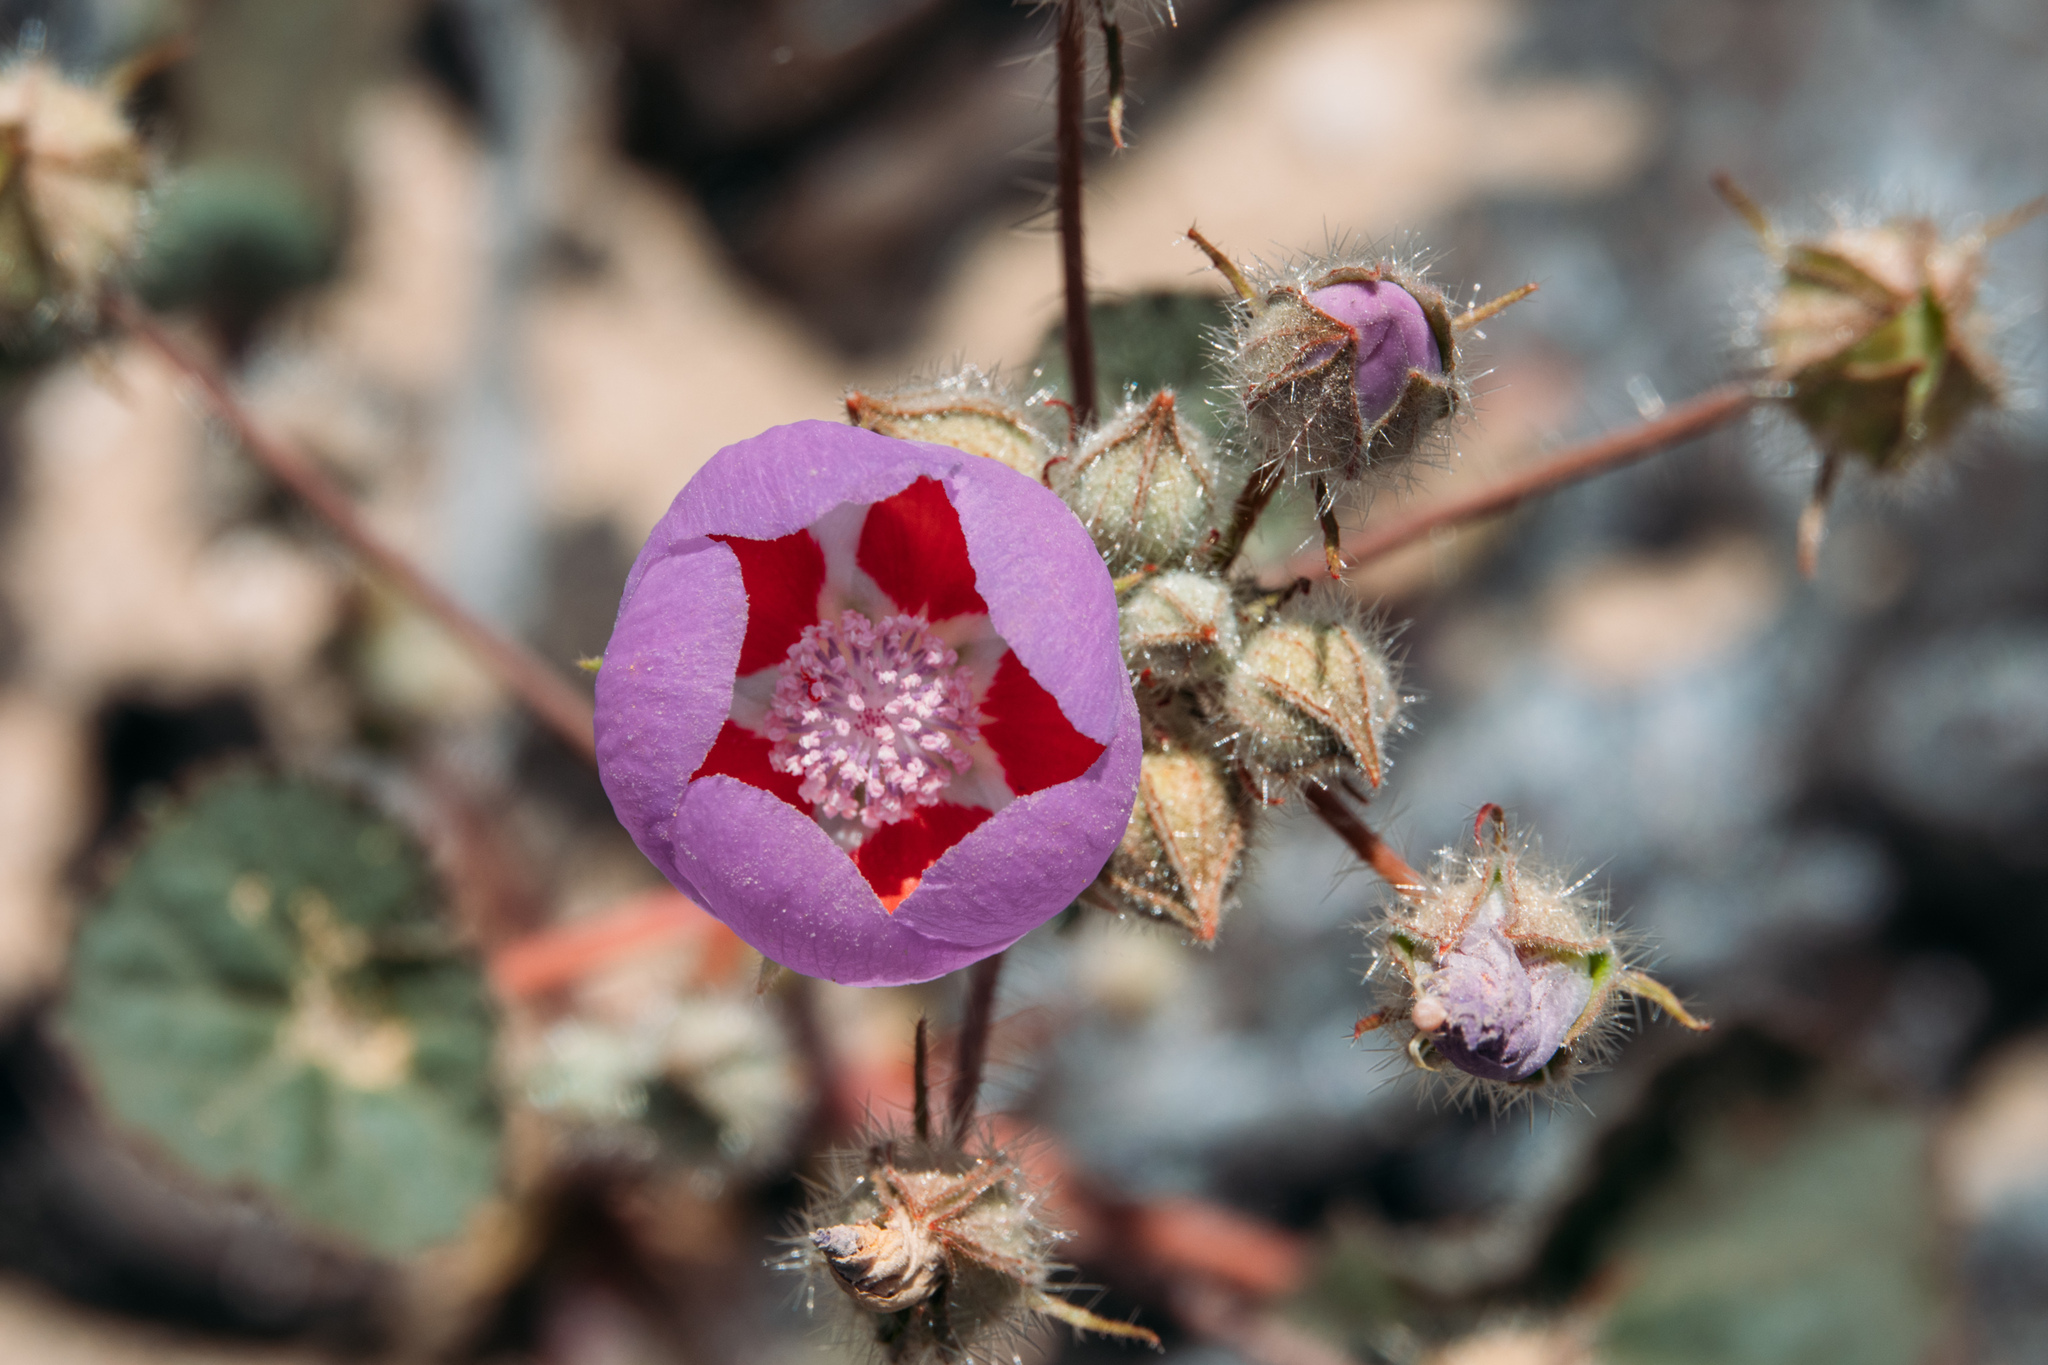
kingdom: Plantae
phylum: Tracheophyta
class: Magnoliopsida
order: Malvales
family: Malvaceae
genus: Eremalche
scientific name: Eremalche rotundifolia
